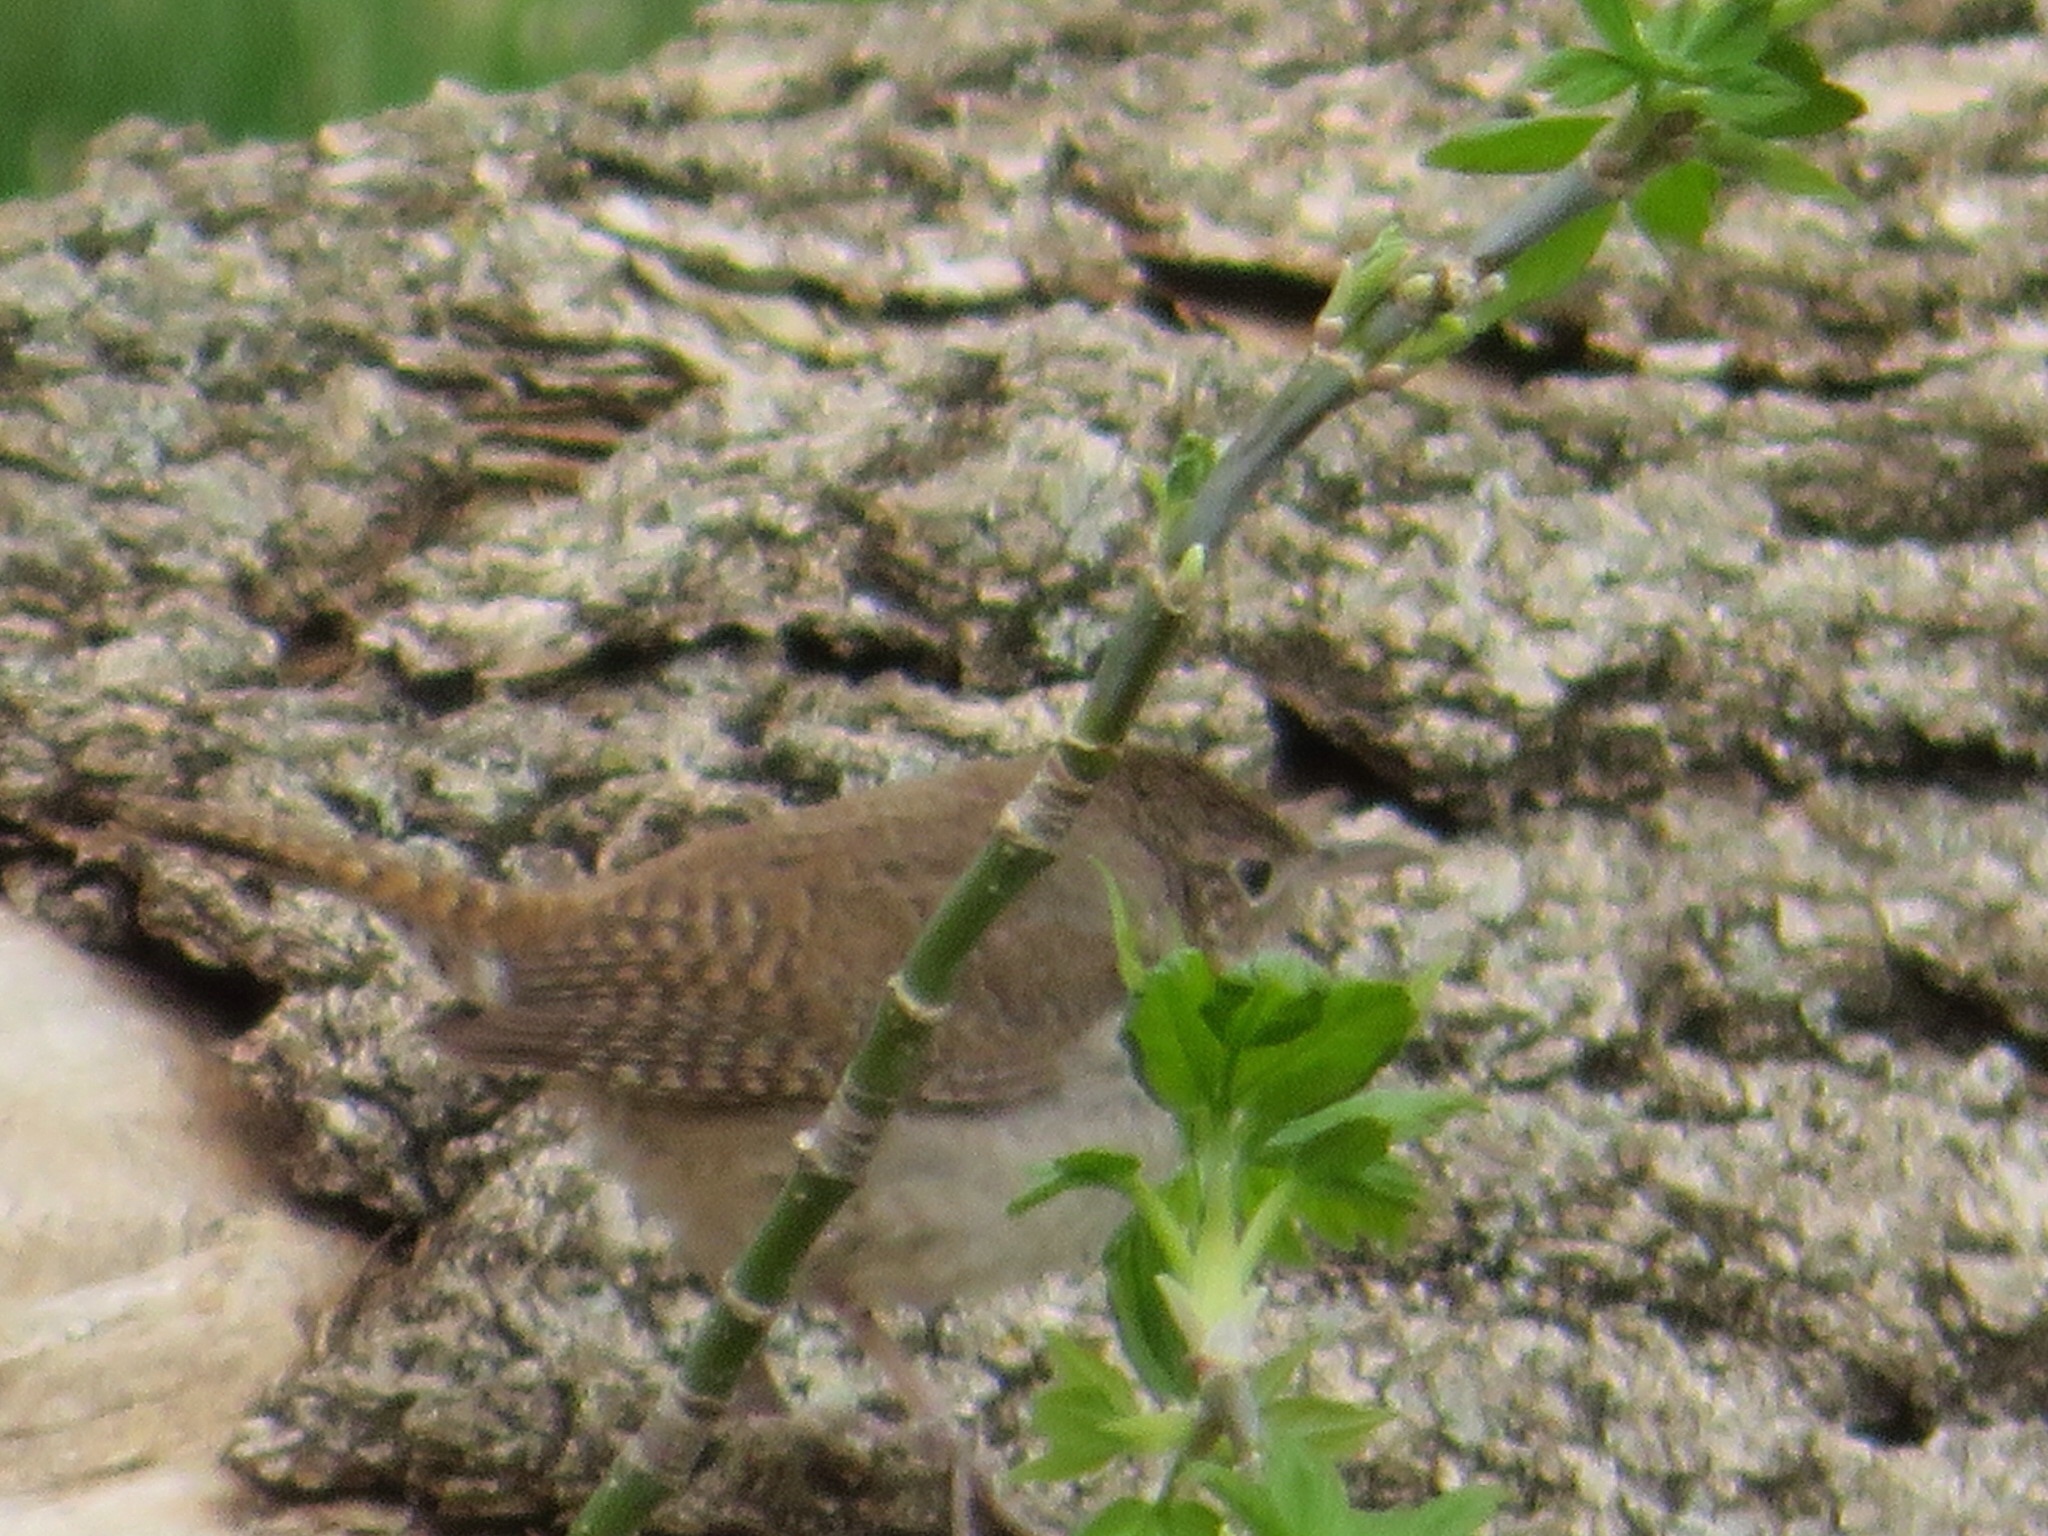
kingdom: Animalia
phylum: Chordata
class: Aves
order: Passeriformes
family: Troglodytidae
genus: Troglodytes
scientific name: Troglodytes aedon
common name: House wren
